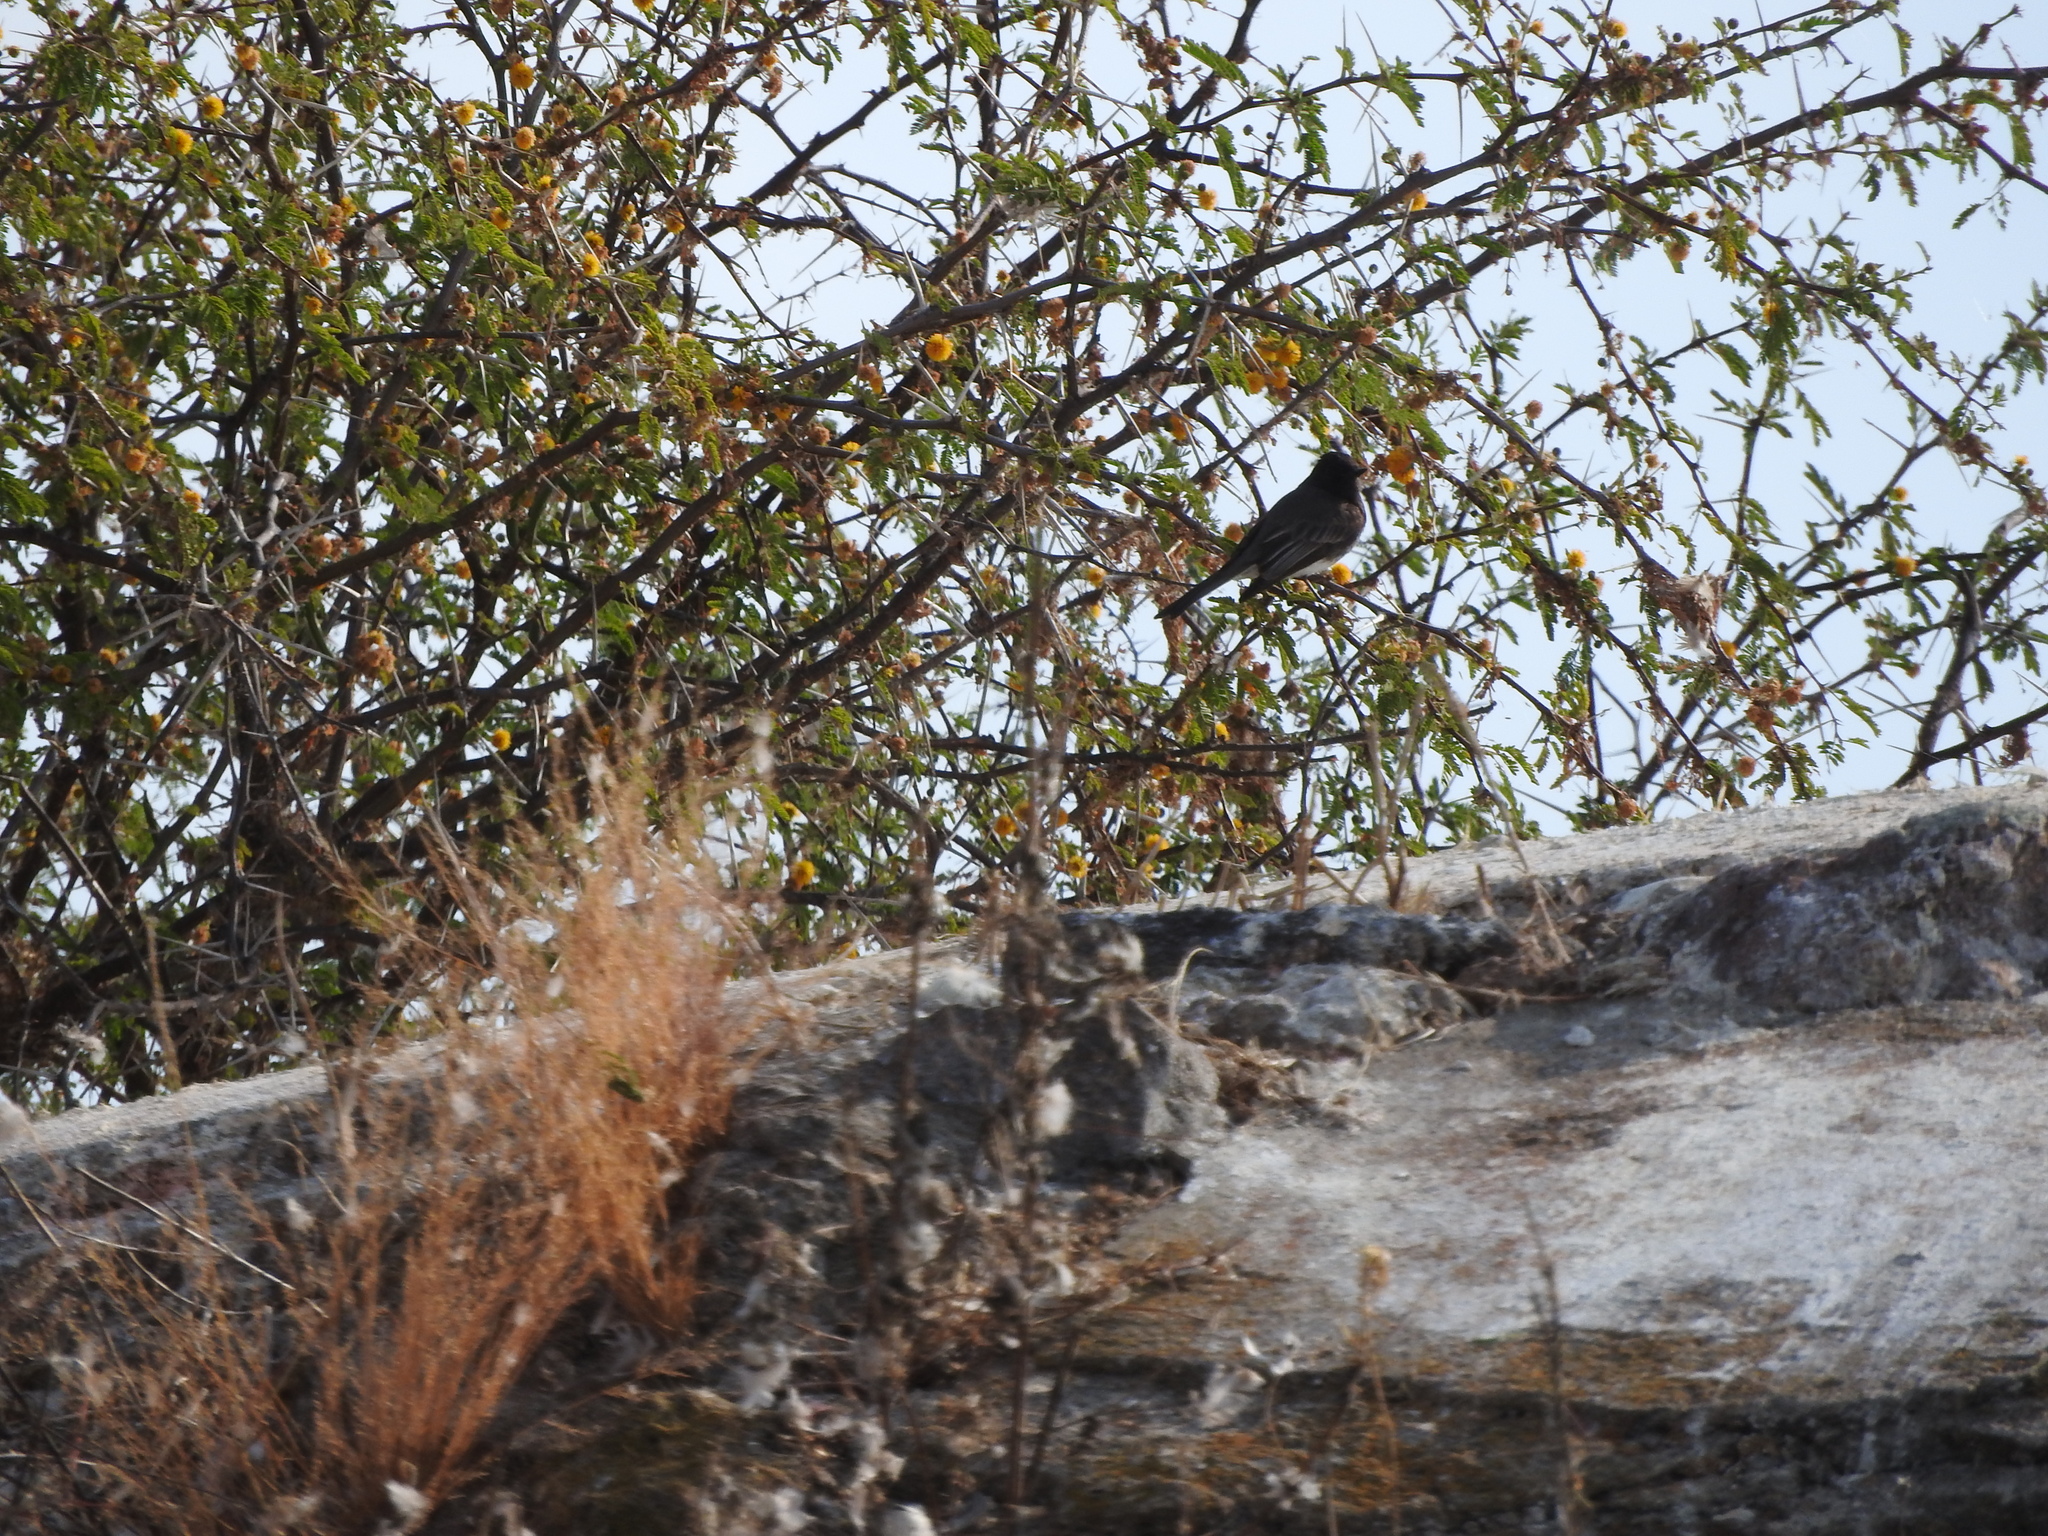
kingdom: Animalia
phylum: Chordata
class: Aves
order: Passeriformes
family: Tyrannidae
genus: Sayornis
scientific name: Sayornis nigricans
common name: Black phoebe
